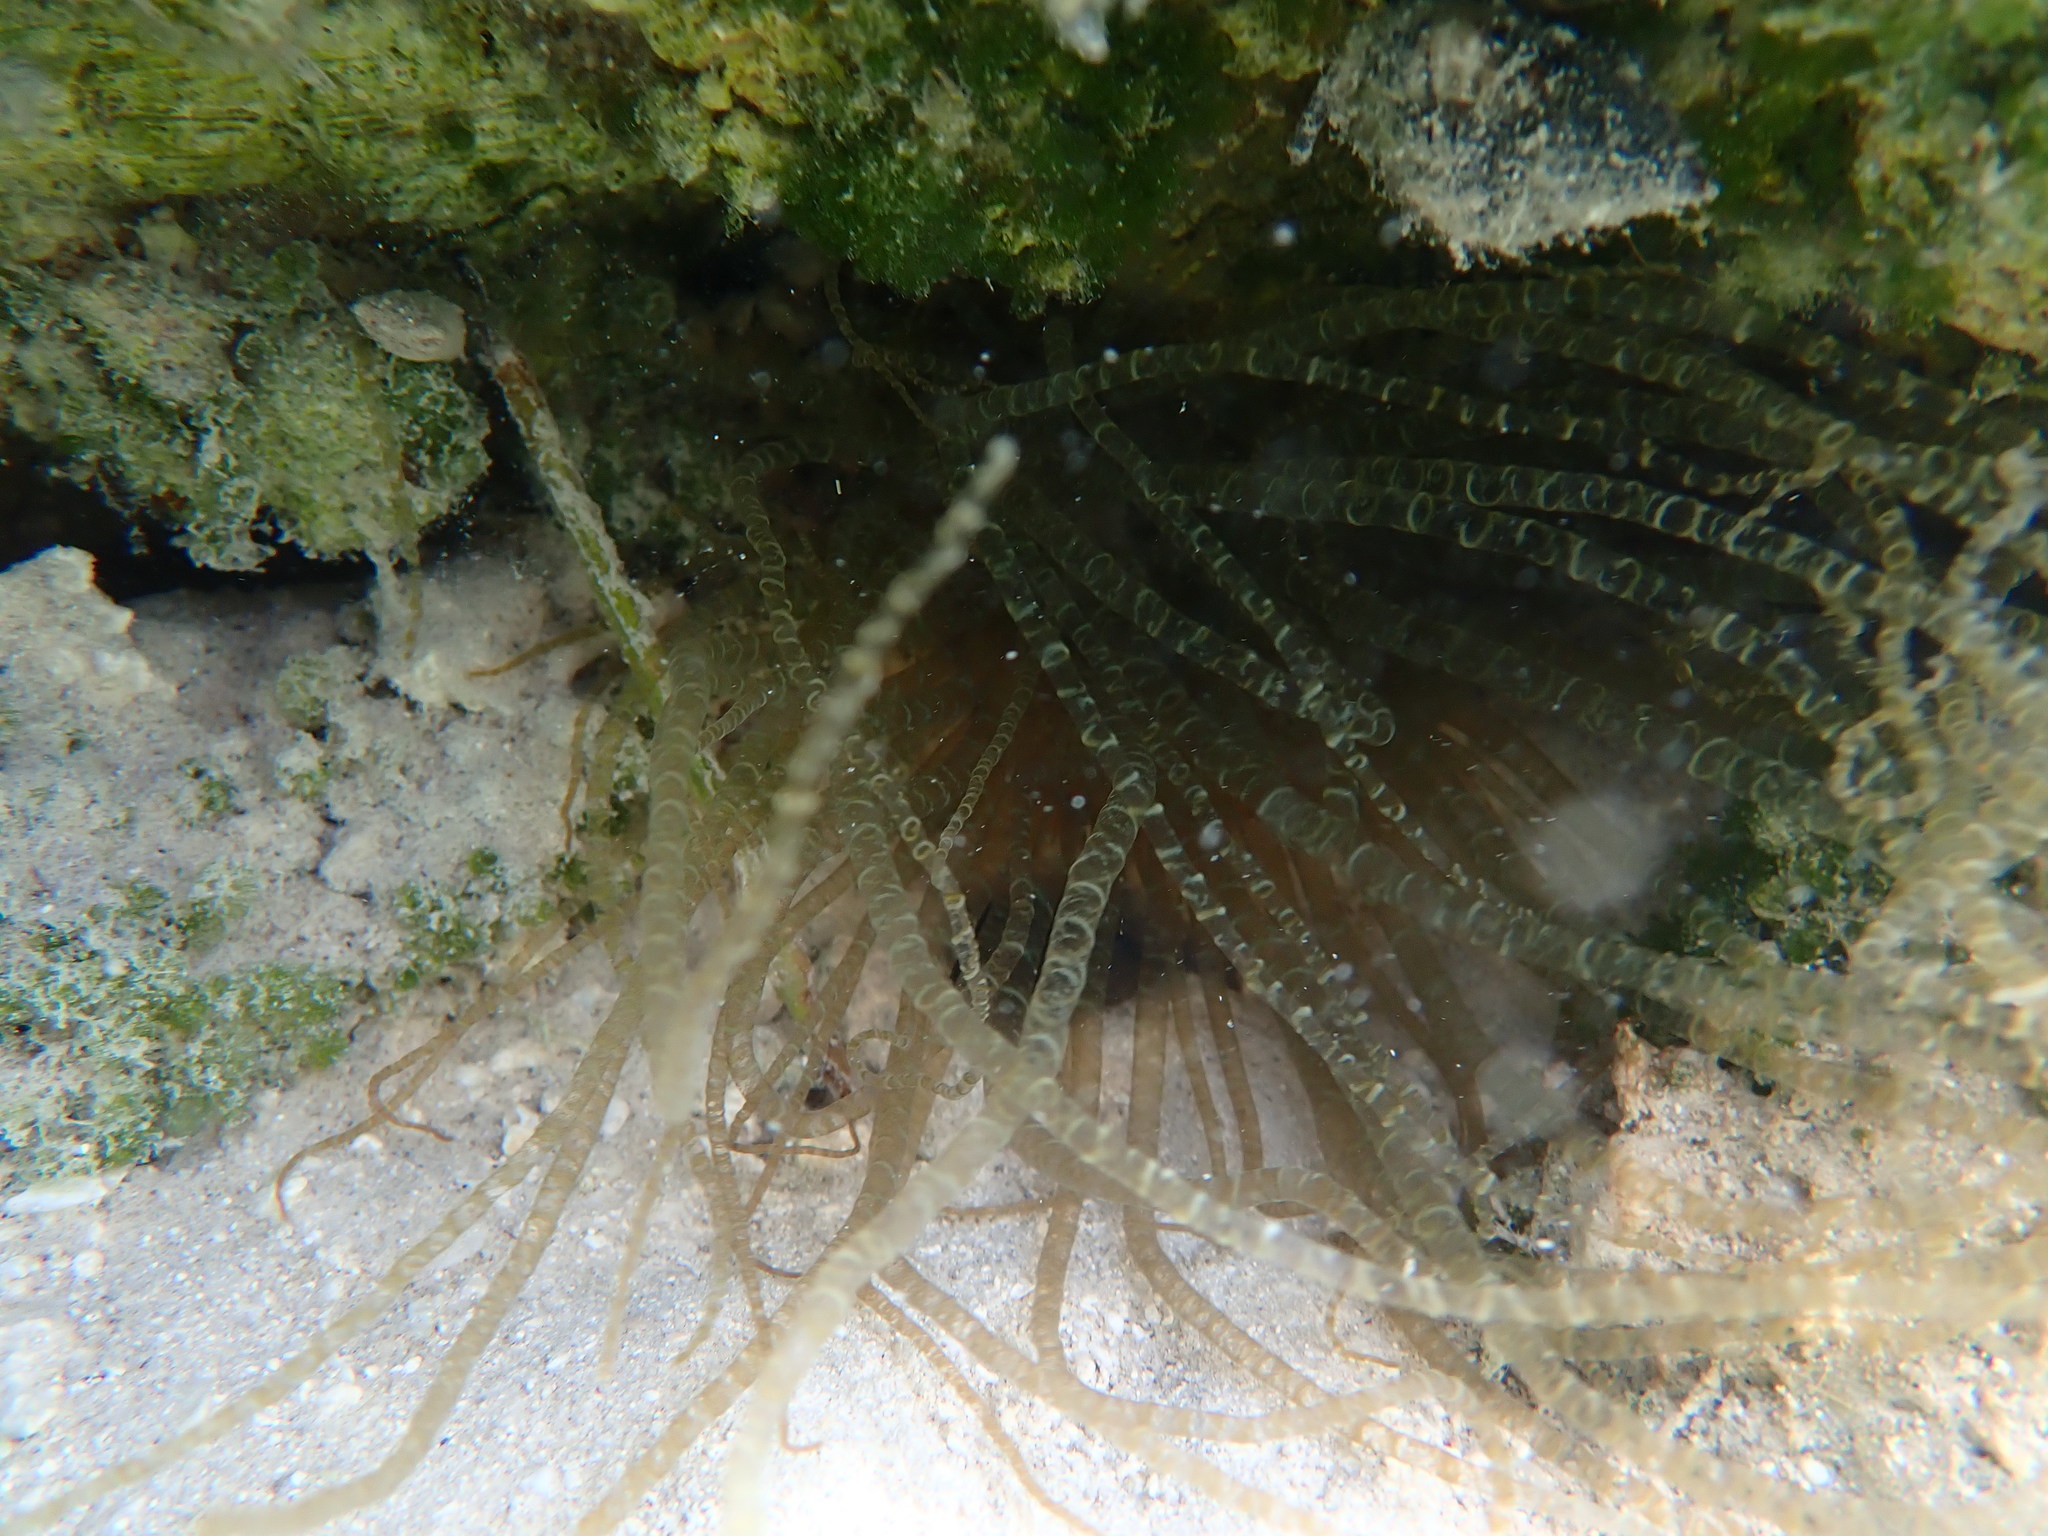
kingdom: Animalia
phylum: Cnidaria
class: Anthozoa
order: Actiniaria
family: Aiptasiidae
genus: Bartholomea
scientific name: Bartholomea annulata
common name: Corkscrew anemone
